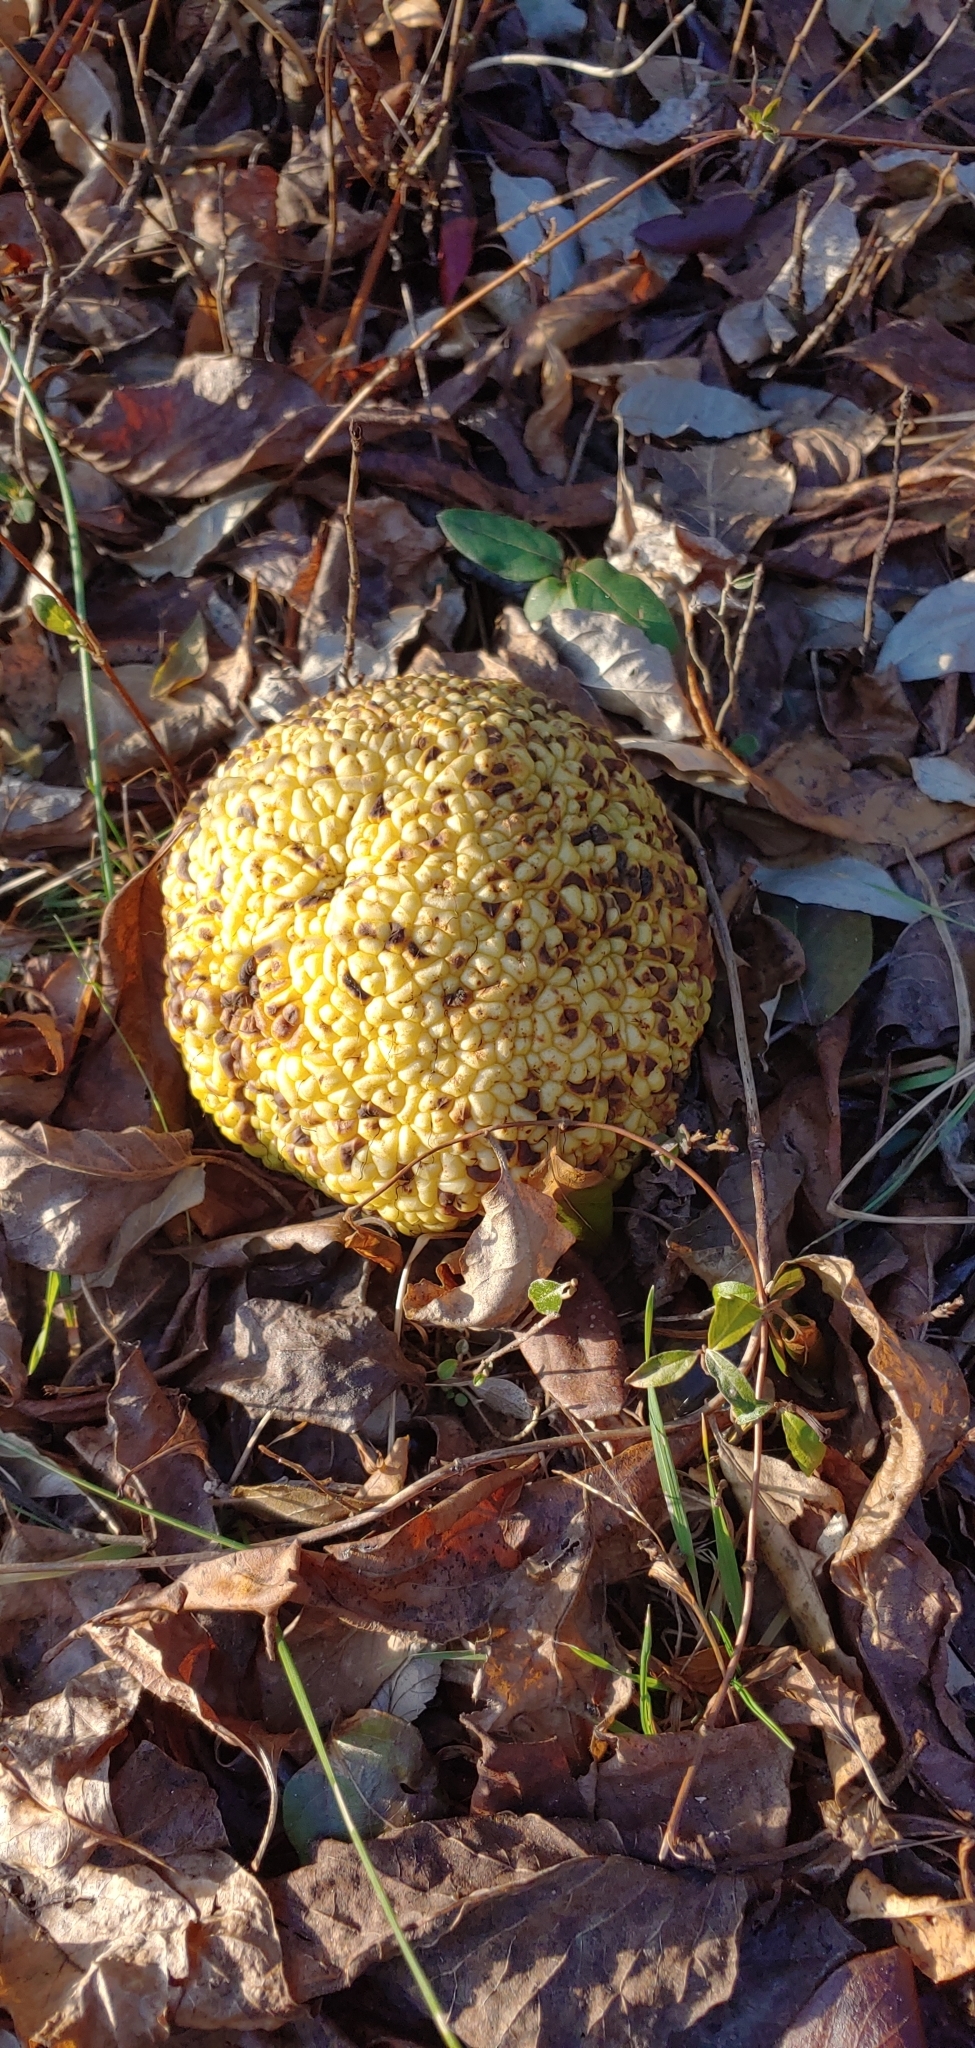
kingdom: Plantae
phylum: Tracheophyta
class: Magnoliopsida
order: Rosales
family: Moraceae
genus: Maclura
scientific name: Maclura pomifera
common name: Osage-orange
